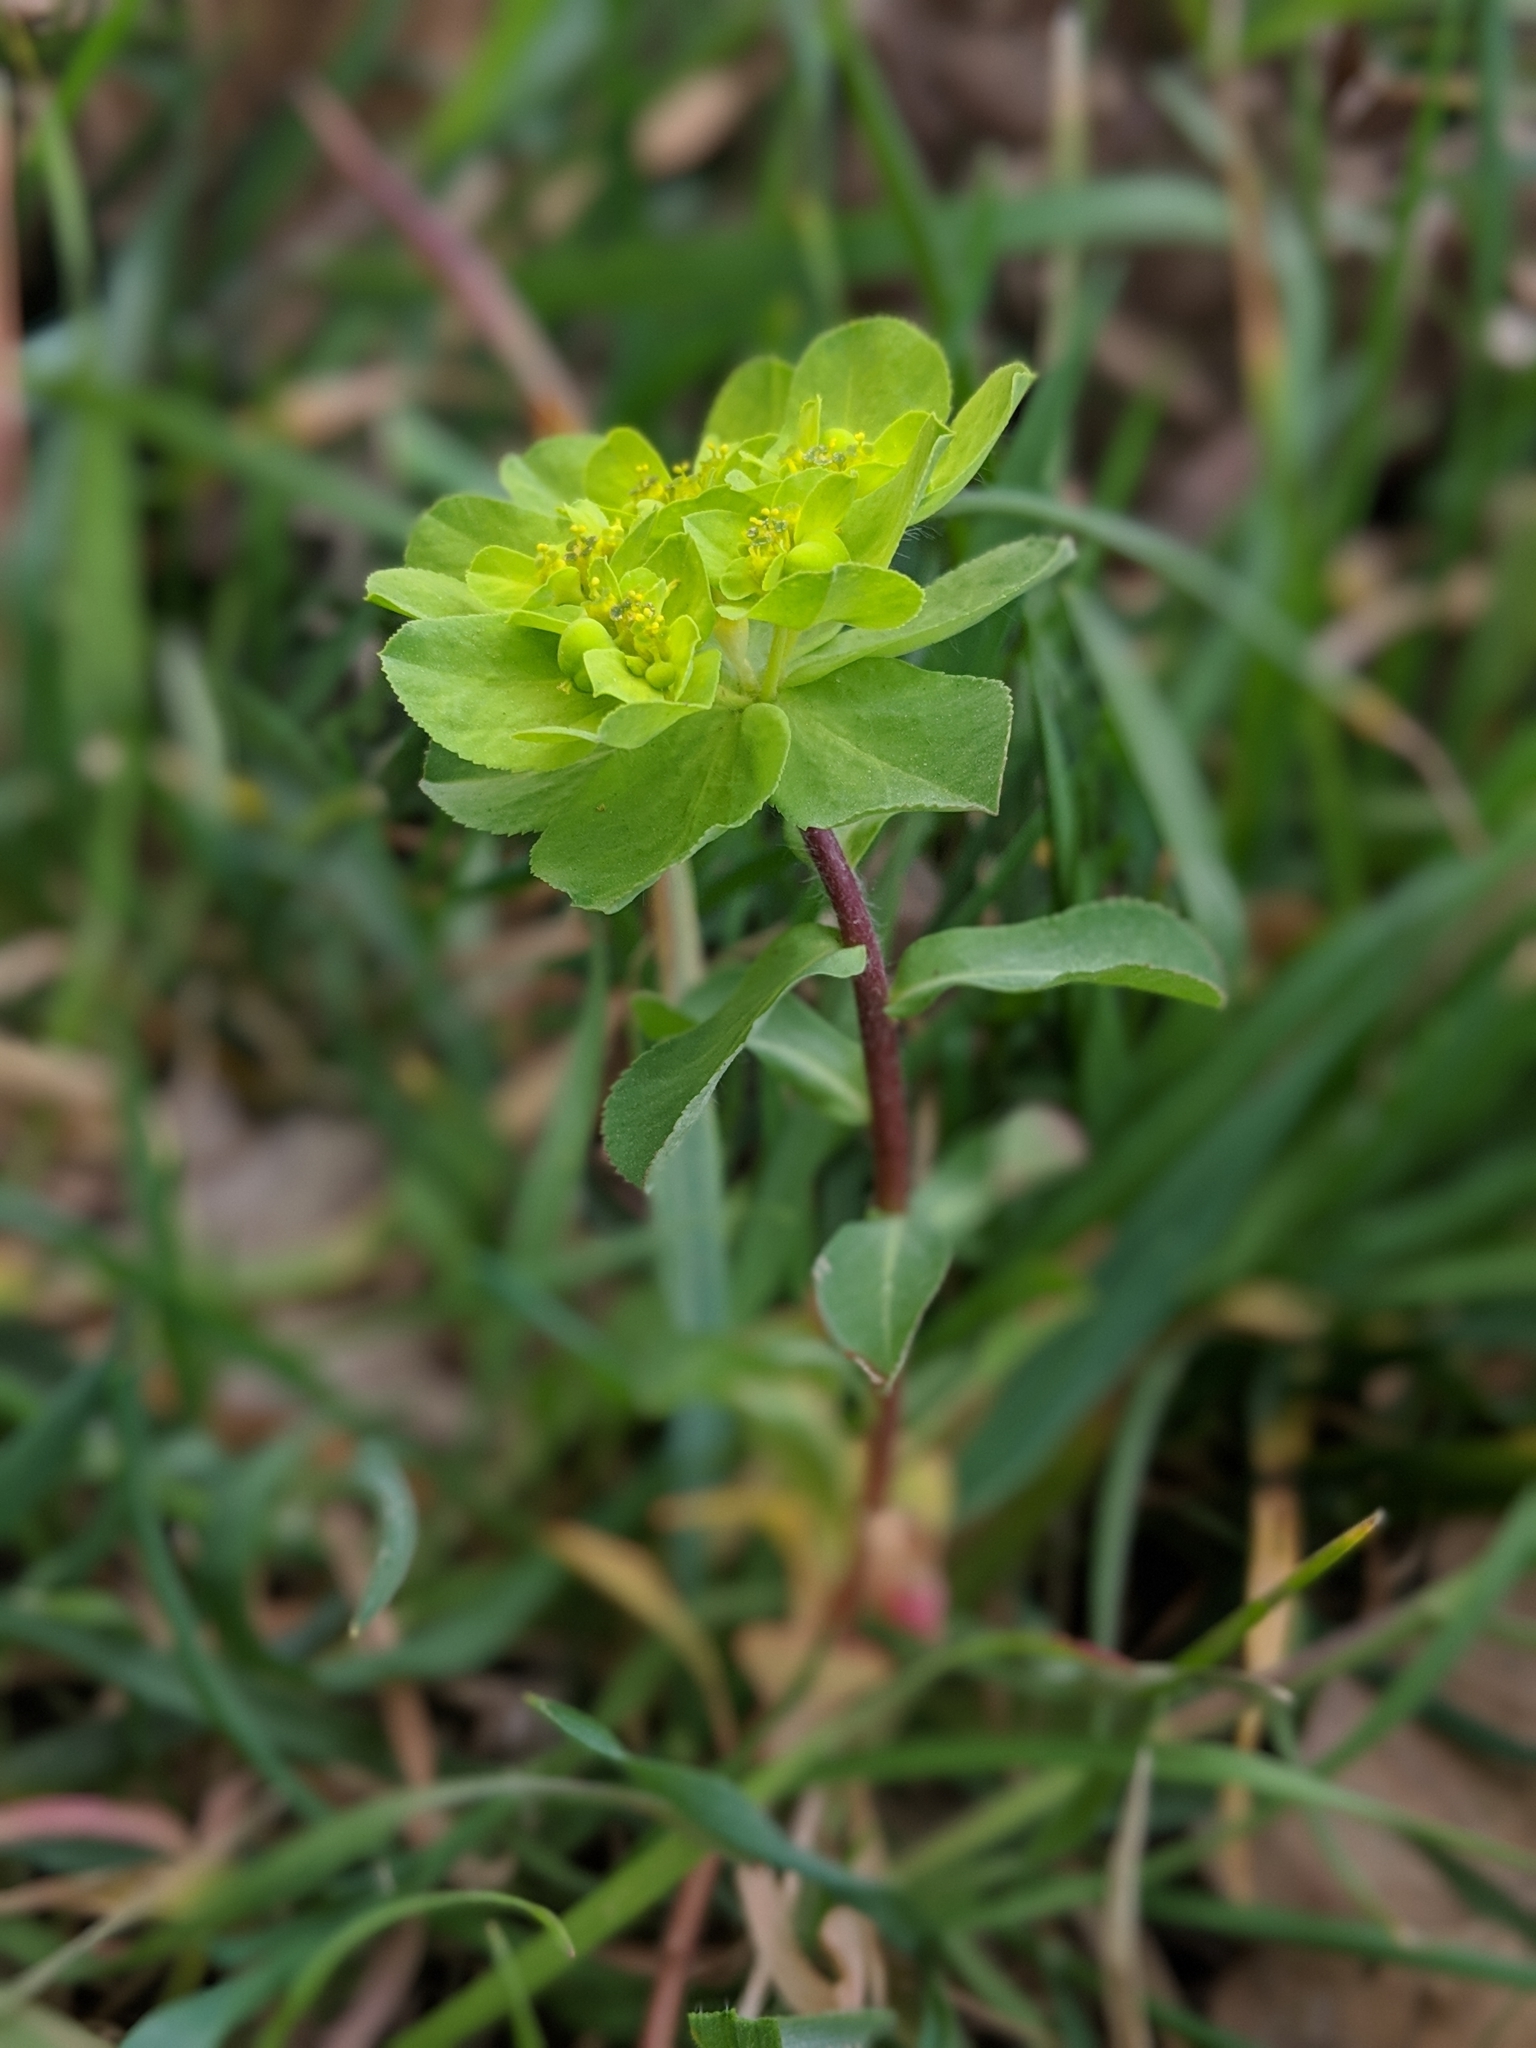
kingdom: Plantae
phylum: Tracheophyta
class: Magnoliopsida
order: Malpighiales
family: Euphorbiaceae
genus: Euphorbia
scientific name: Euphorbia helioscopia
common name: Sun spurge
